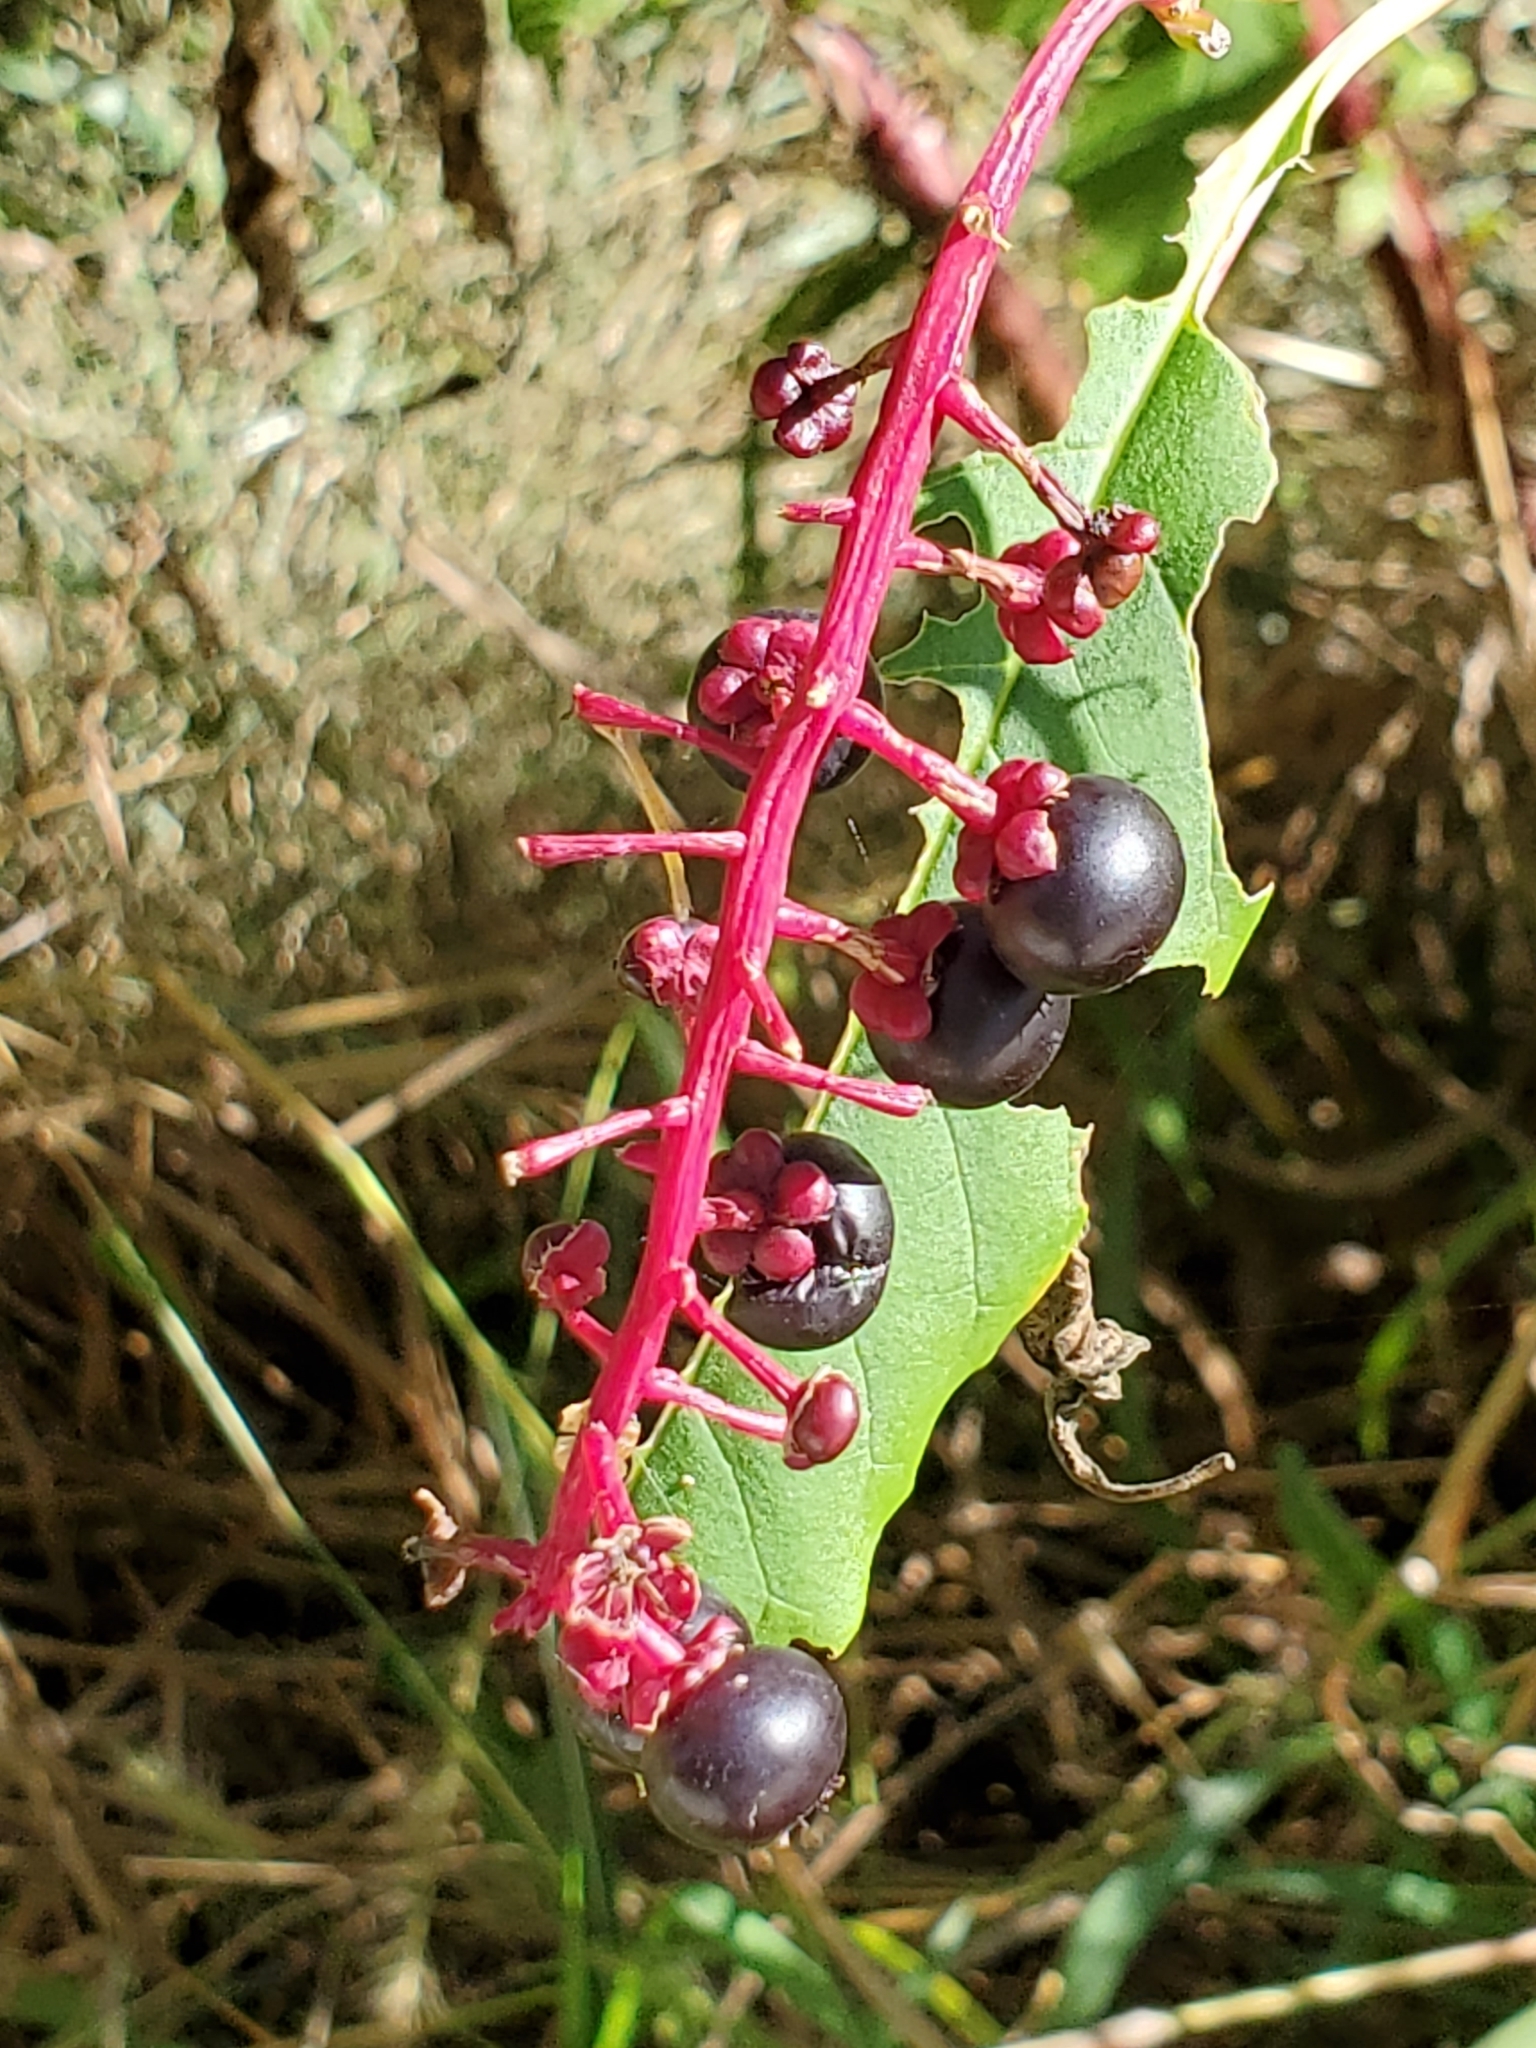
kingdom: Plantae
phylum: Tracheophyta
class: Magnoliopsida
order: Caryophyllales
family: Phytolaccaceae
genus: Phytolacca
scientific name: Phytolacca americana
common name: American pokeweed
